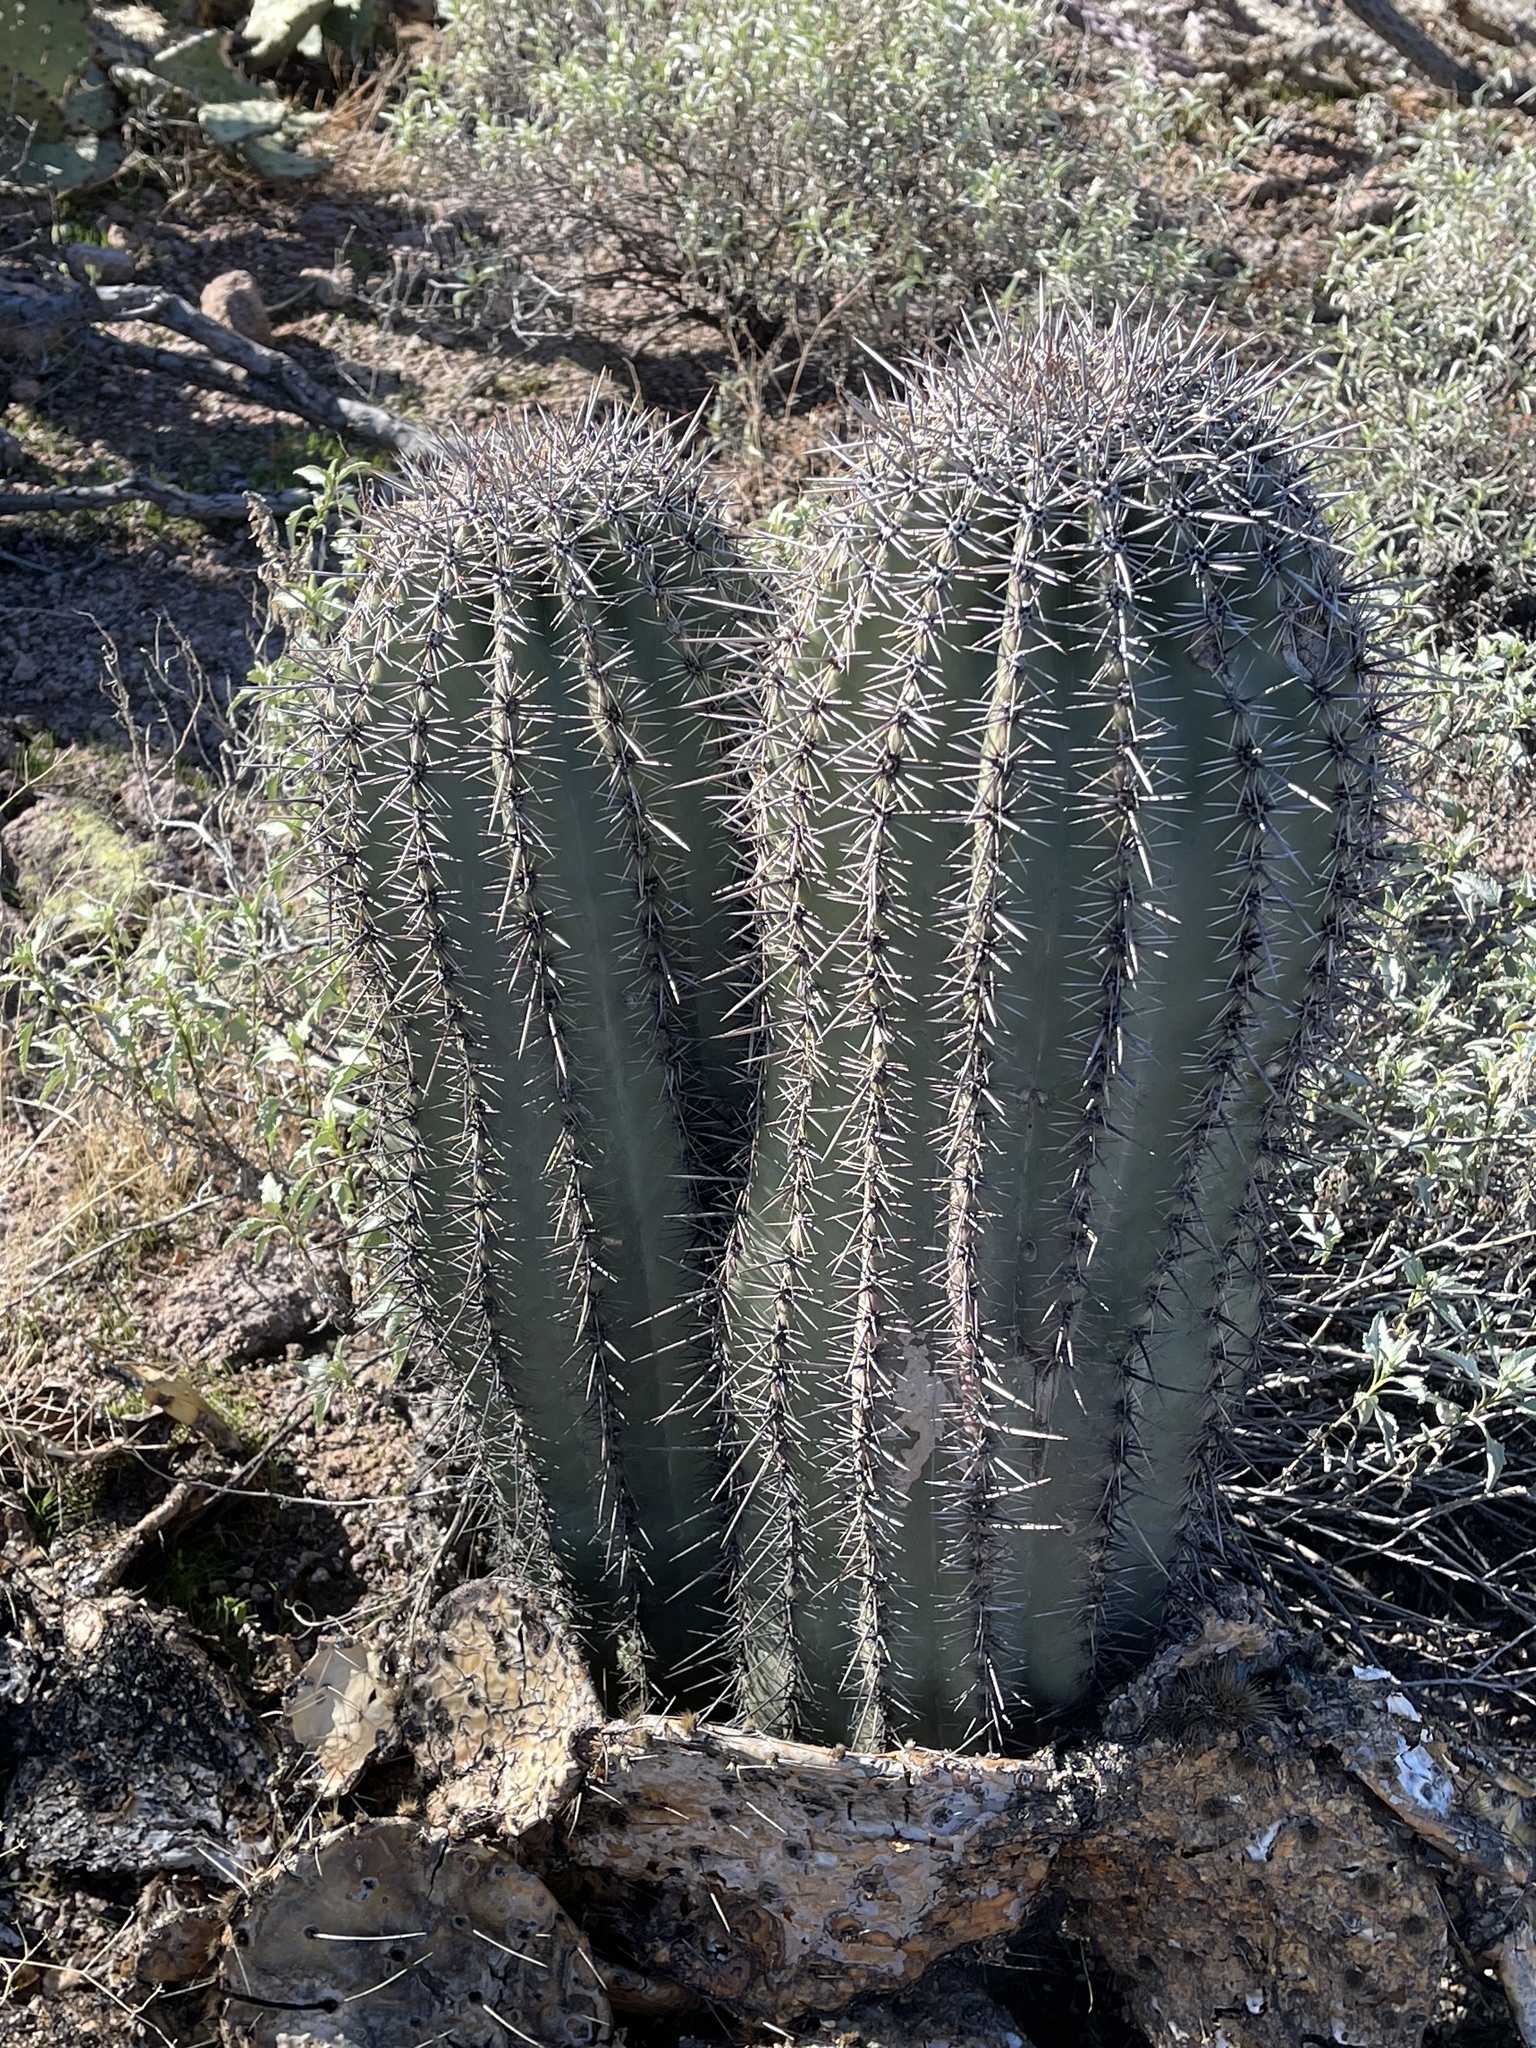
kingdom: Plantae
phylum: Tracheophyta
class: Magnoliopsida
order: Caryophyllales
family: Cactaceae
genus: Carnegiea
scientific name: Carnegiea gigantea
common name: Saguaro
